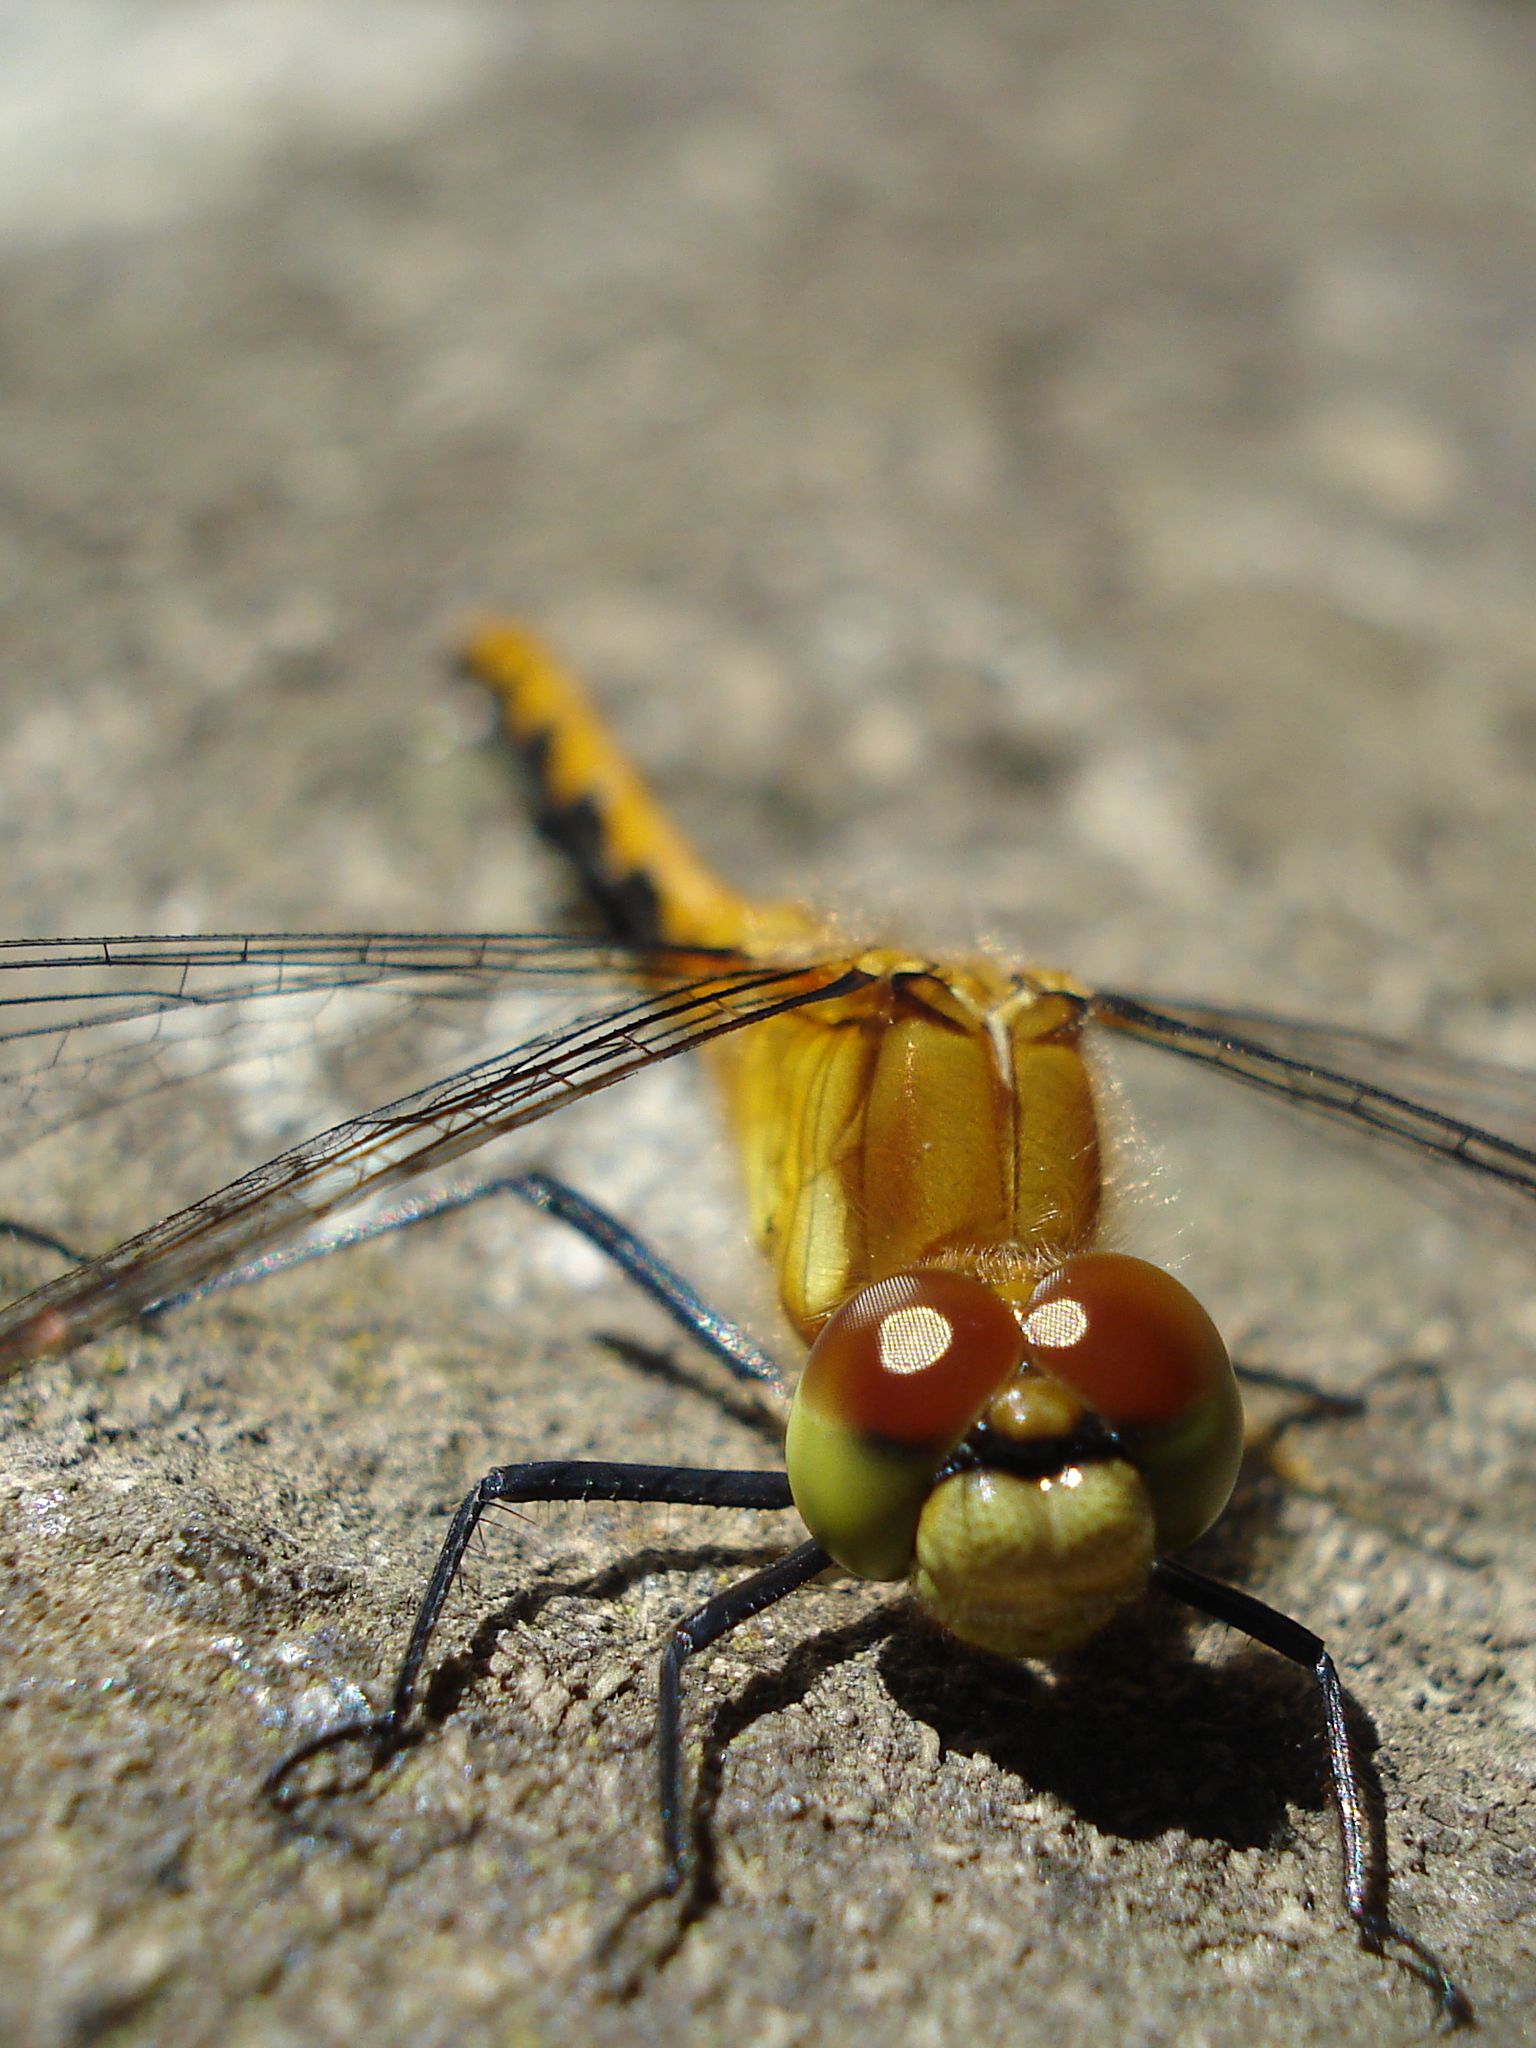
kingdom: Animalia
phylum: Arthropoda
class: Insecta
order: Odonata
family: Libellulidae
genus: Sympetrum
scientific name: Sympetrum
